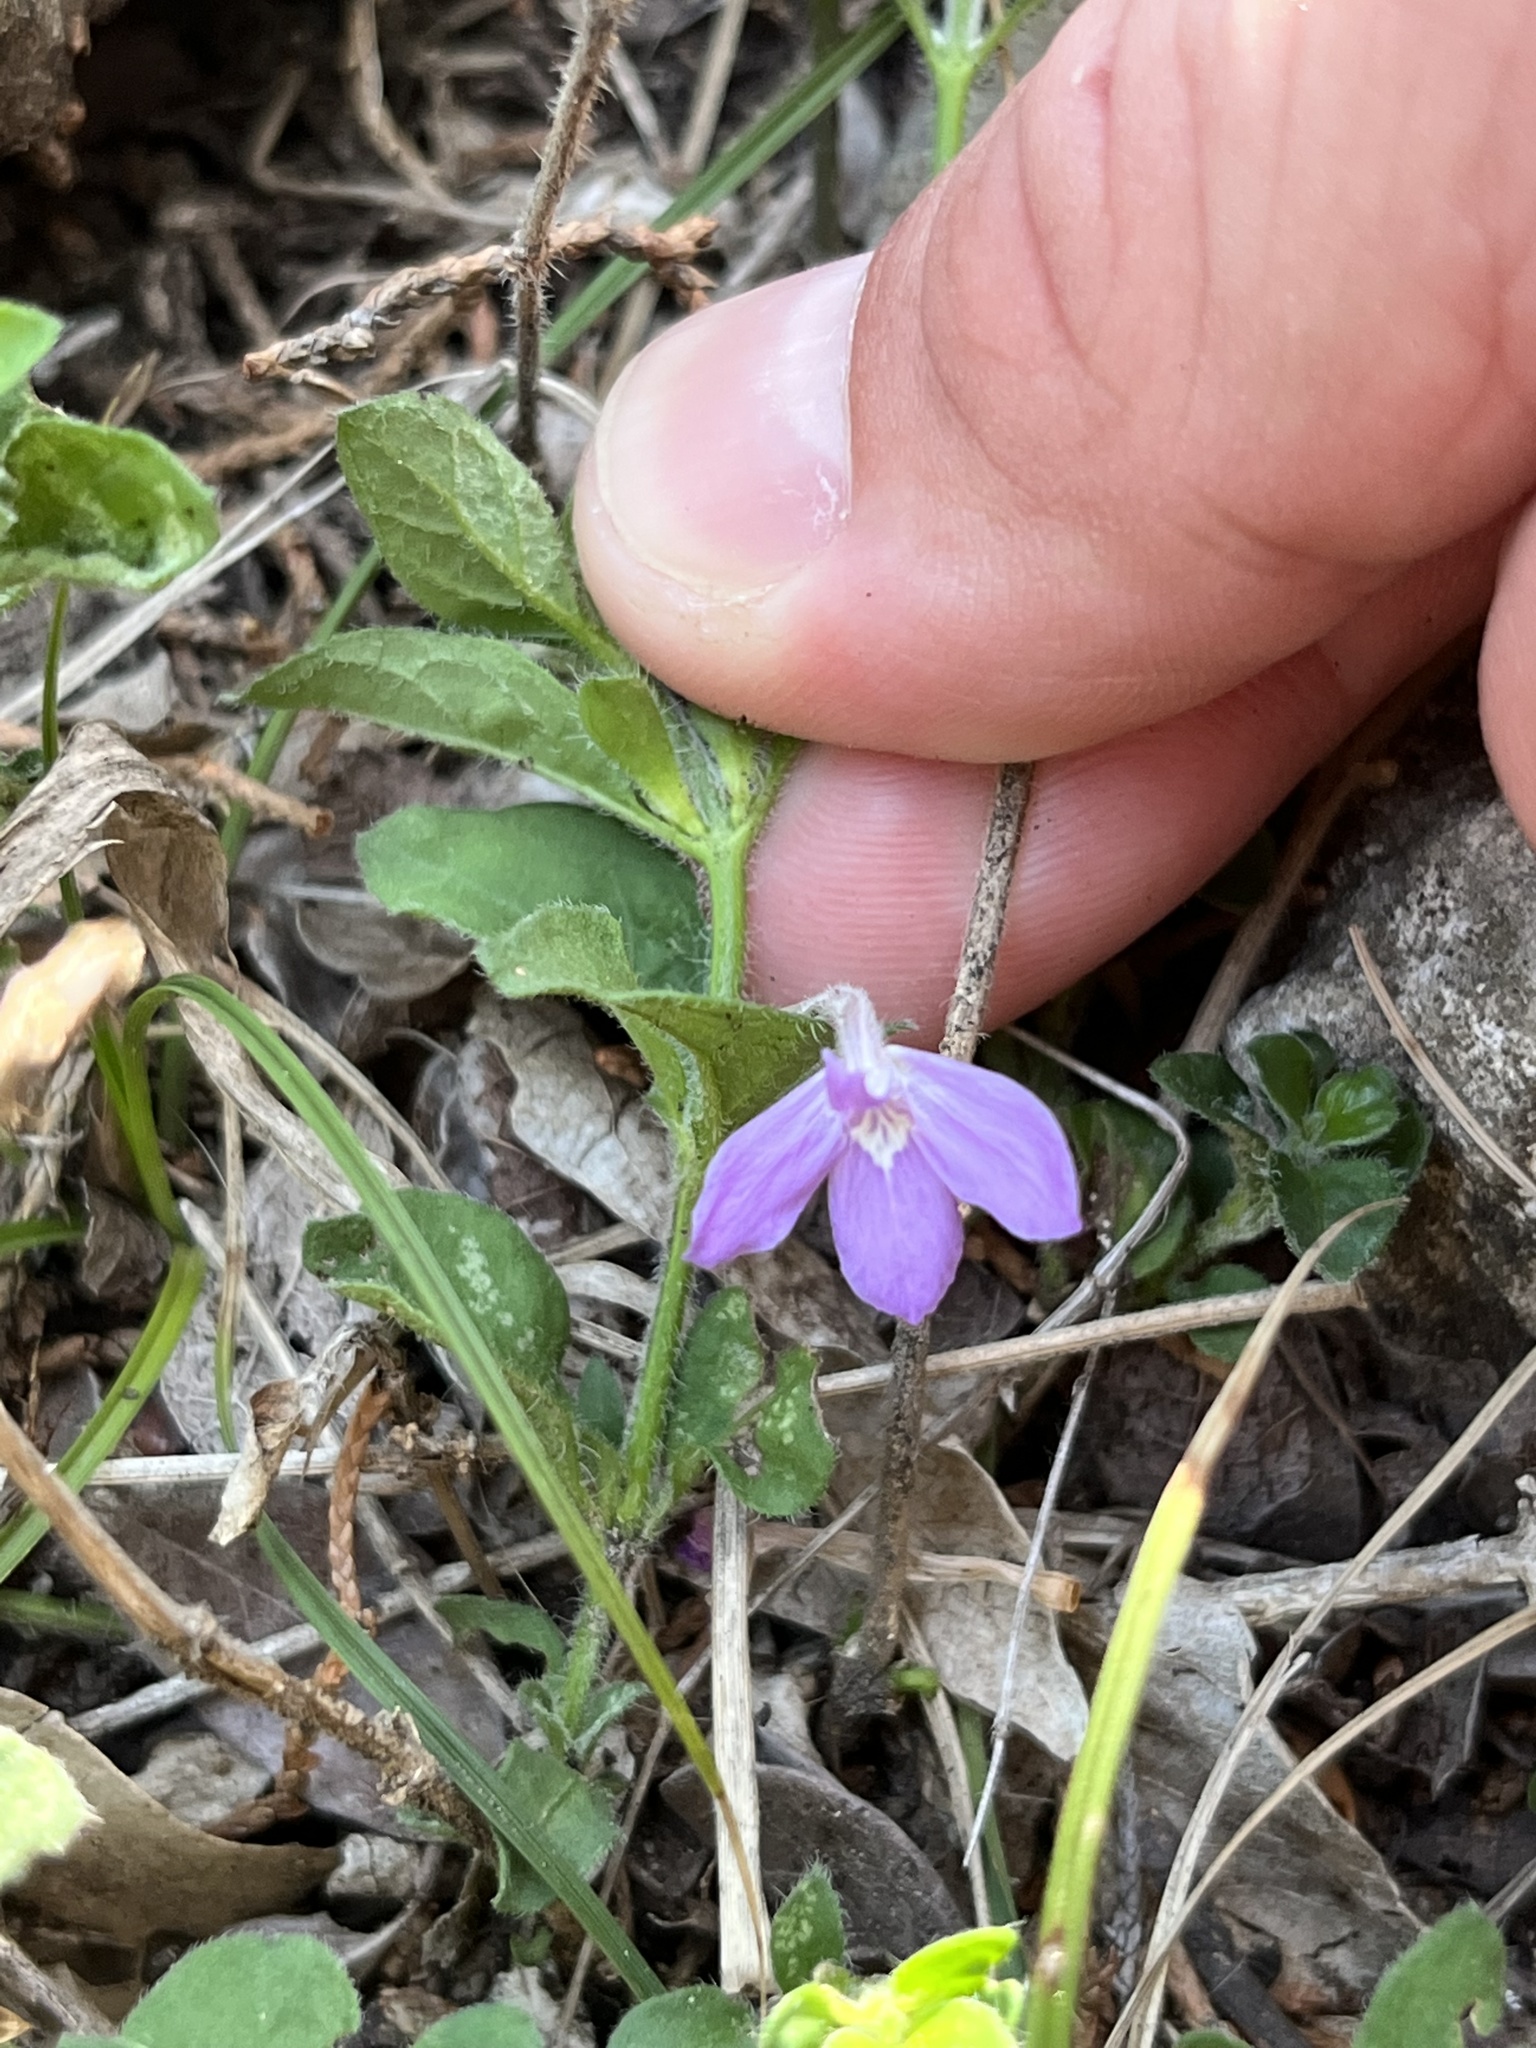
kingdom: Plantae
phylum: Tracheophyta
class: Magnoliopsida
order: Lamiales
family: Acanthaceae
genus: Justicia
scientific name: Justicia pilosella
